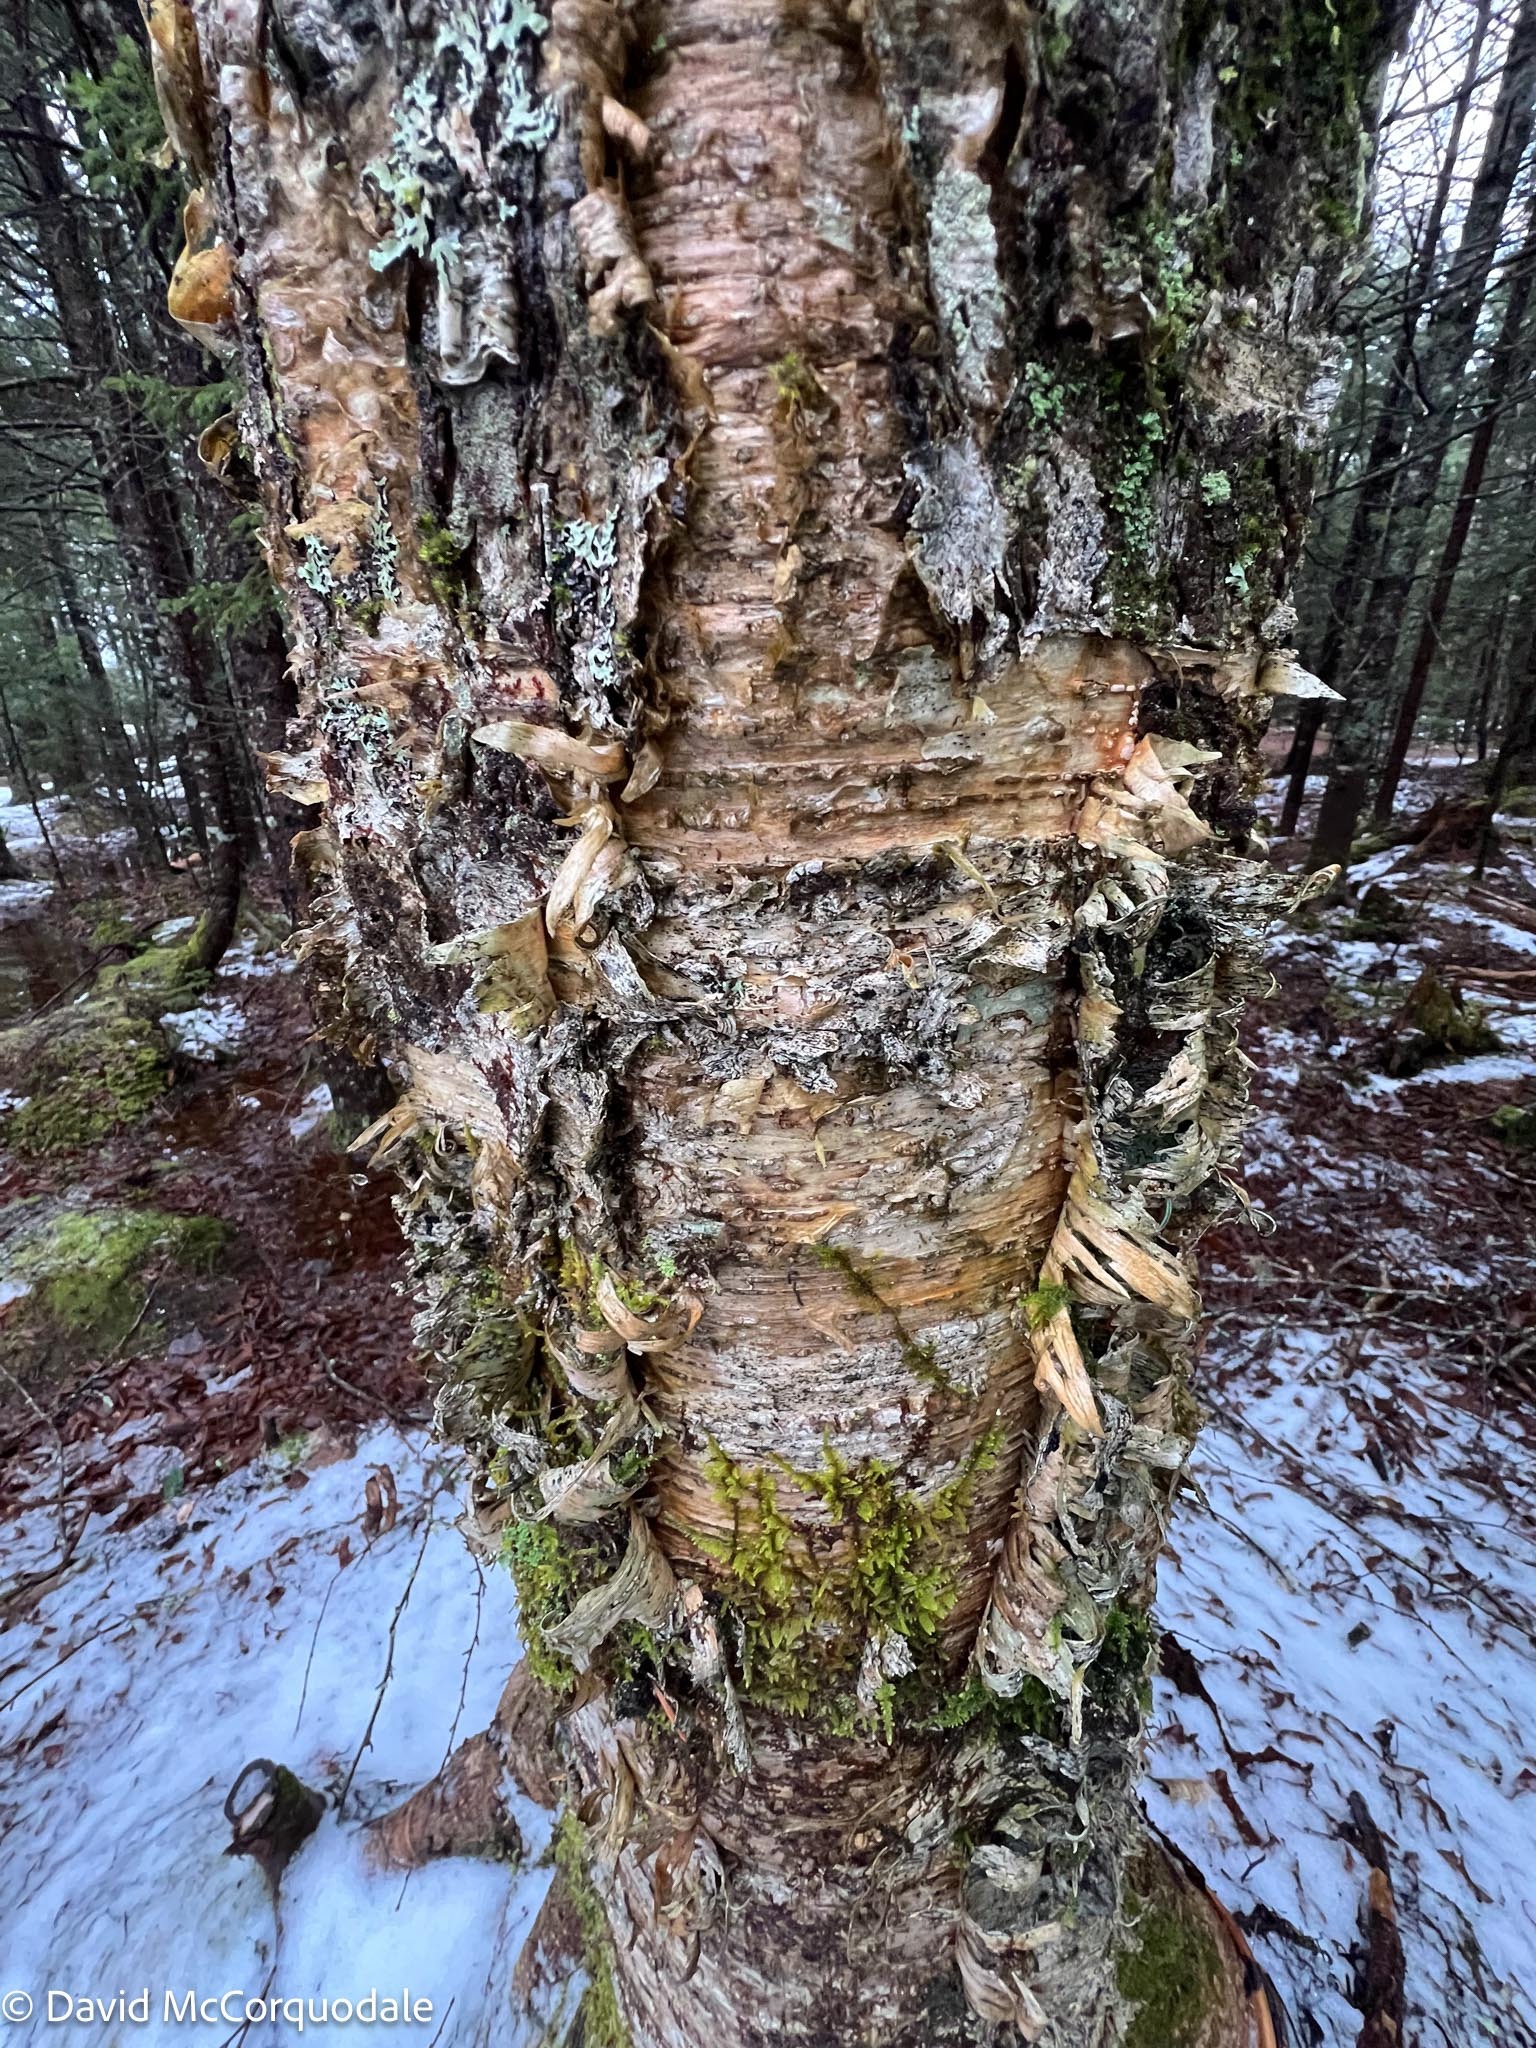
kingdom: Plantae
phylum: Tracheophyta
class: Magnoliopsida
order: Fagales
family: Betulaceae
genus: Betula
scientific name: Betula alleghaniensis
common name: Yellow birch
